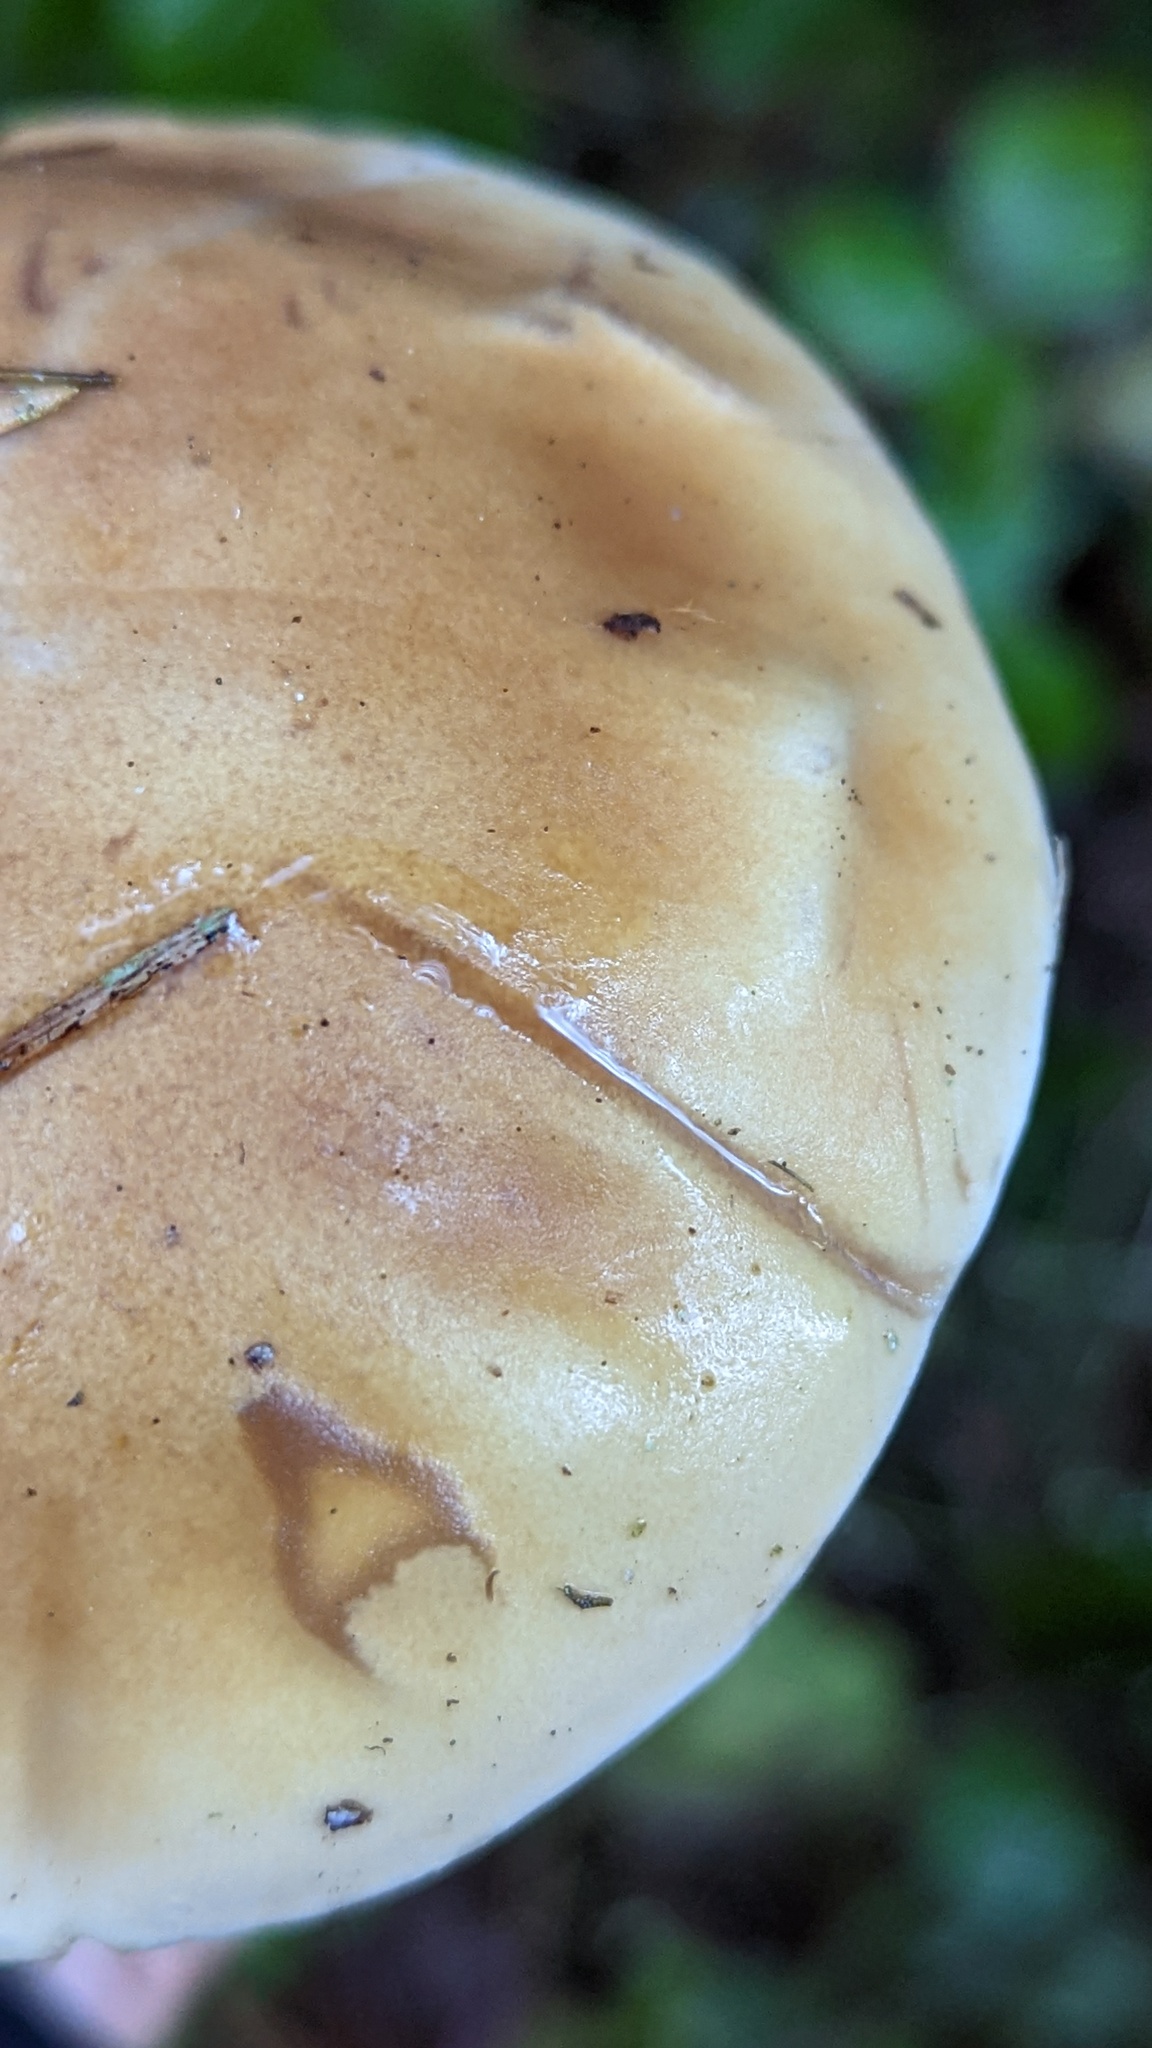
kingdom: Fungi
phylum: Basidiomycota
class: Agaricomycetes
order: Boletales
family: Boletaceae
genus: Boletus
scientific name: Boletus edulis
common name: Cep
